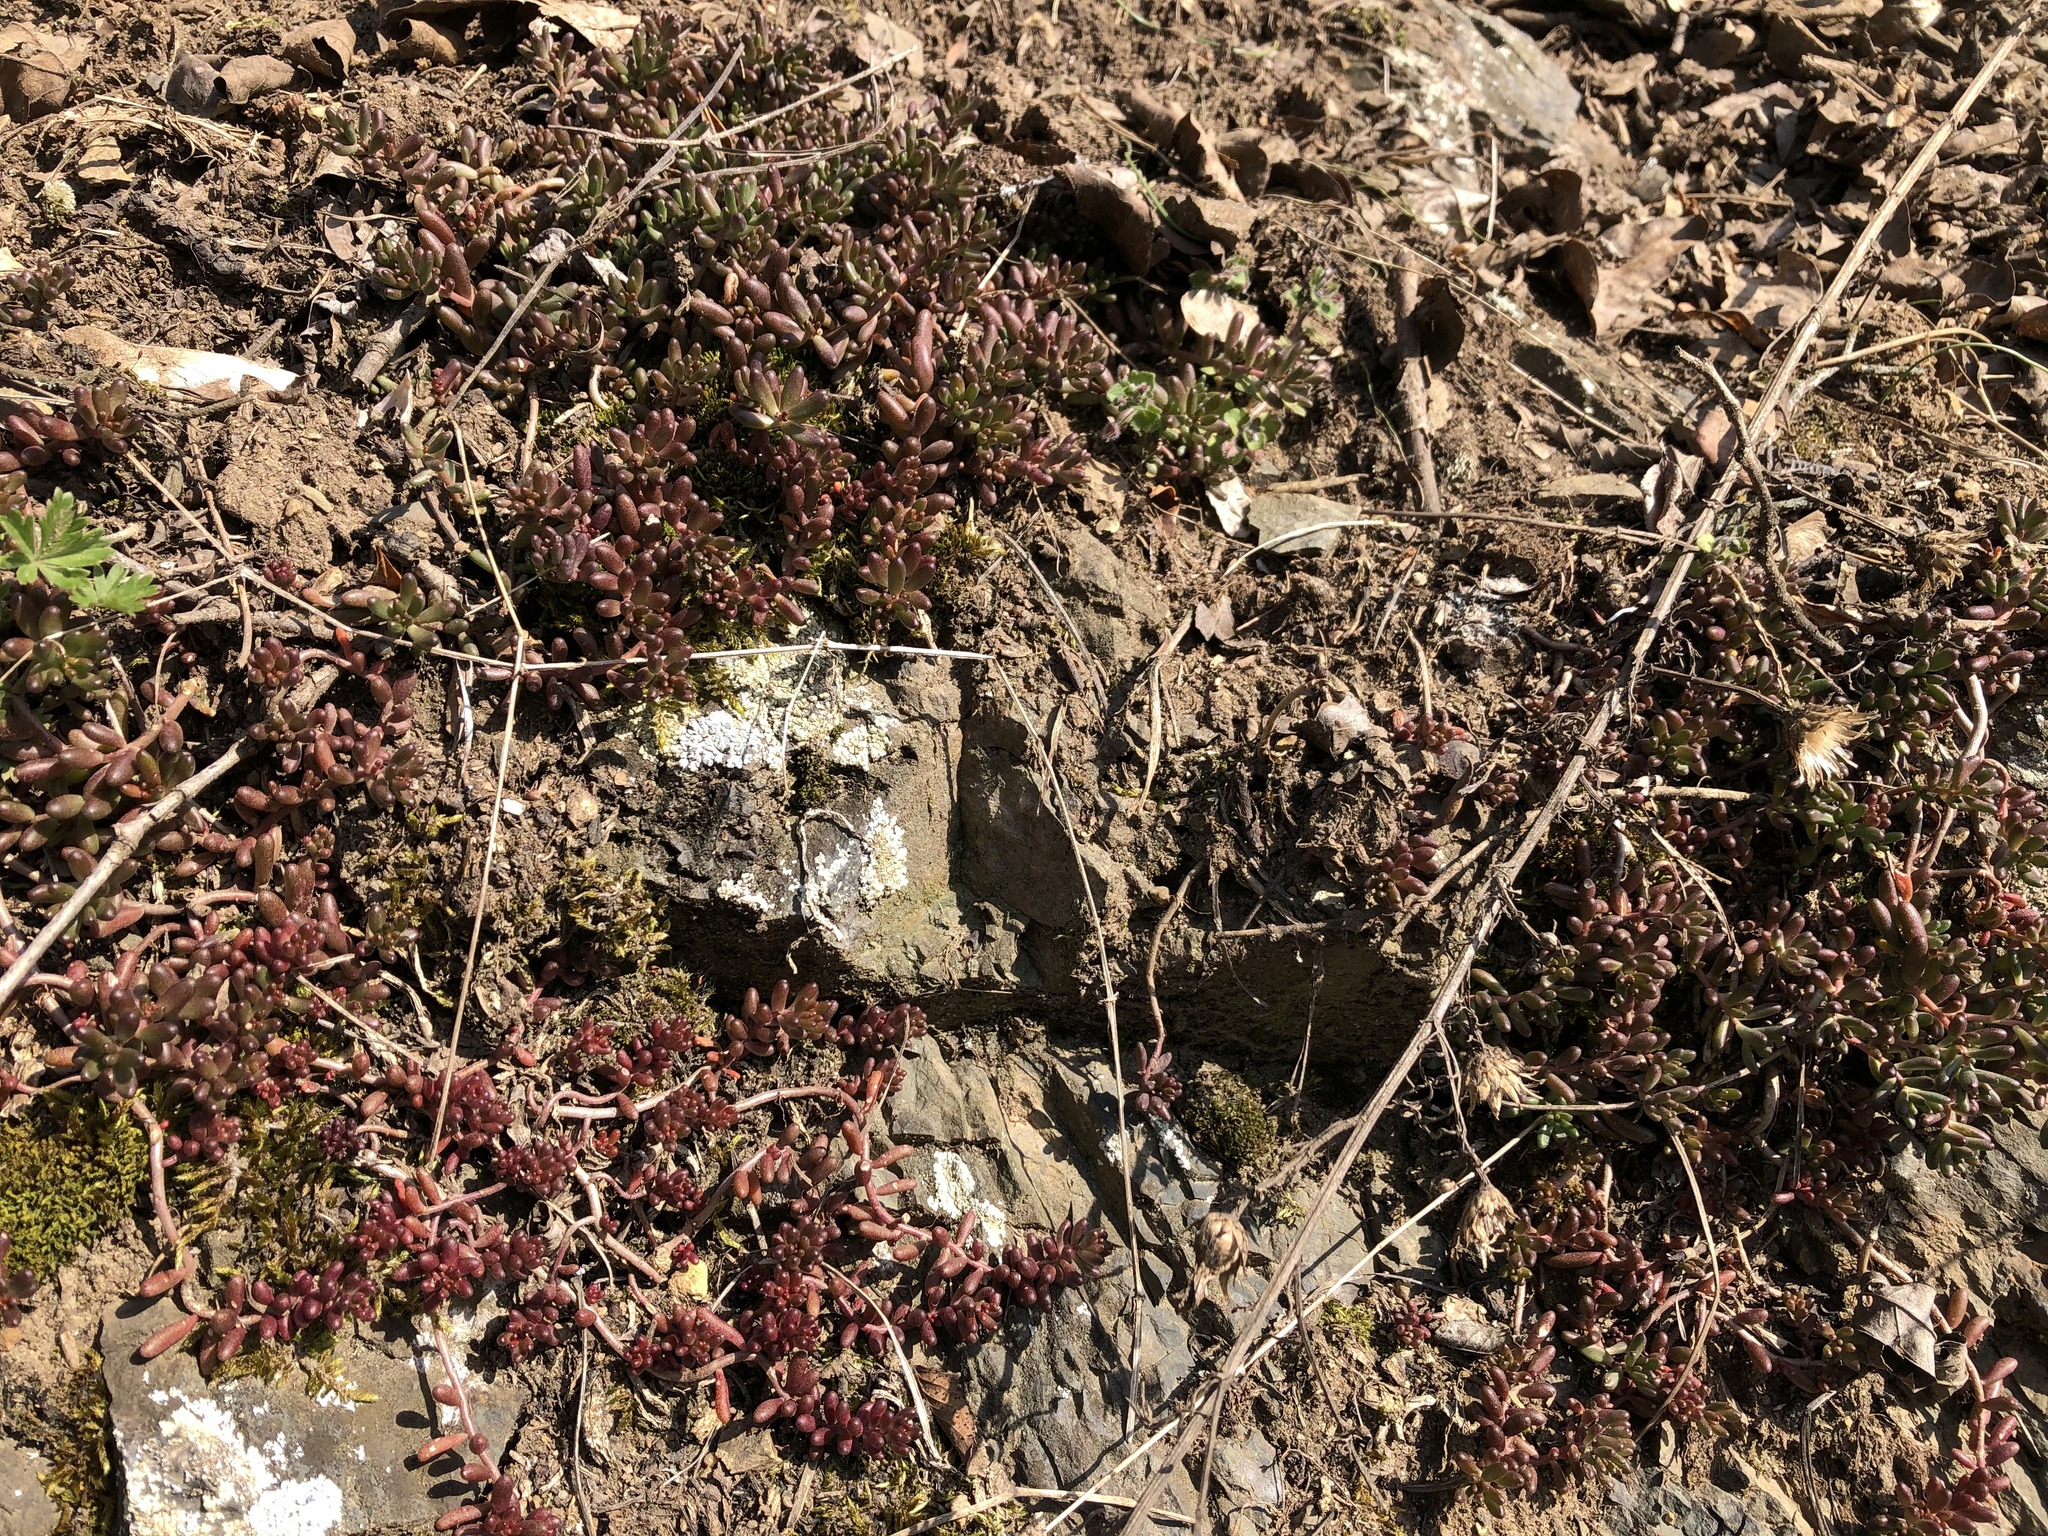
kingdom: Plantae
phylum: Tracheophyta
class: Magnoliopsida
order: Saxifragales
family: Crassulaceae
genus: Sedum
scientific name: Sedum album
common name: White stonecrop
